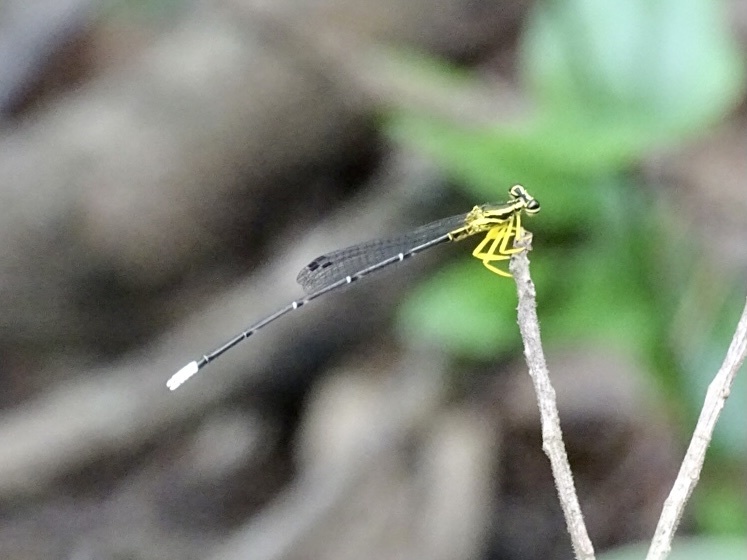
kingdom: Animalia
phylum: Arthropoda
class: Insecta
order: Odonata
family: Platycnemididae
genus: Copera
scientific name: Copera marginipes
